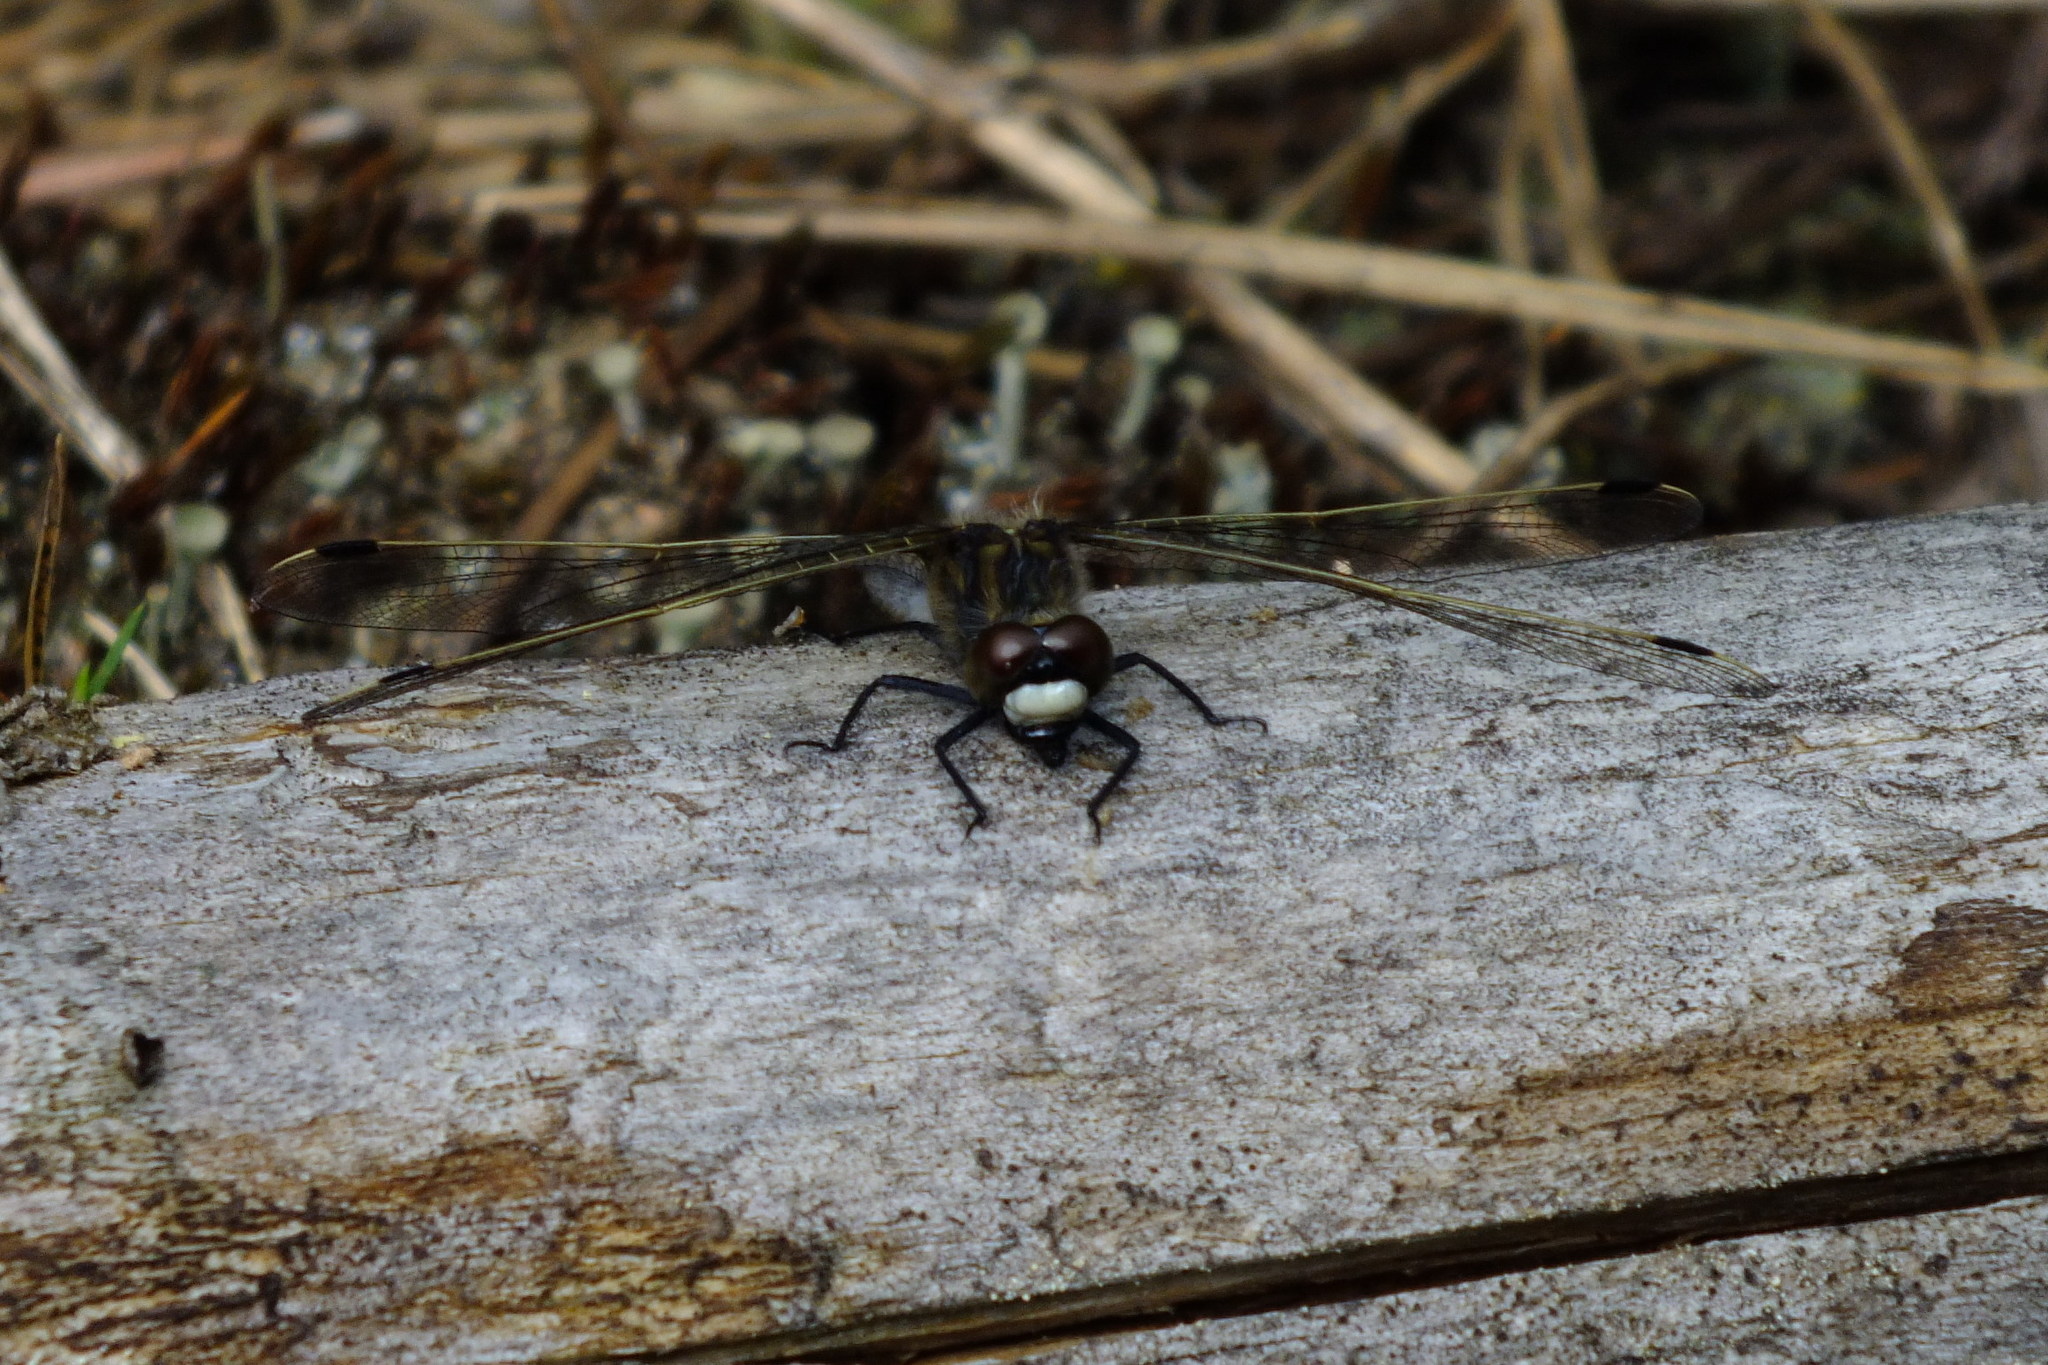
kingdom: Animalia
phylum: Arthropoda
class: Insecta
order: Odonata
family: Libellulidae
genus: Leucorrhinia
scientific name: Leucorrhinia rubicunda
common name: Ruby whiteface
